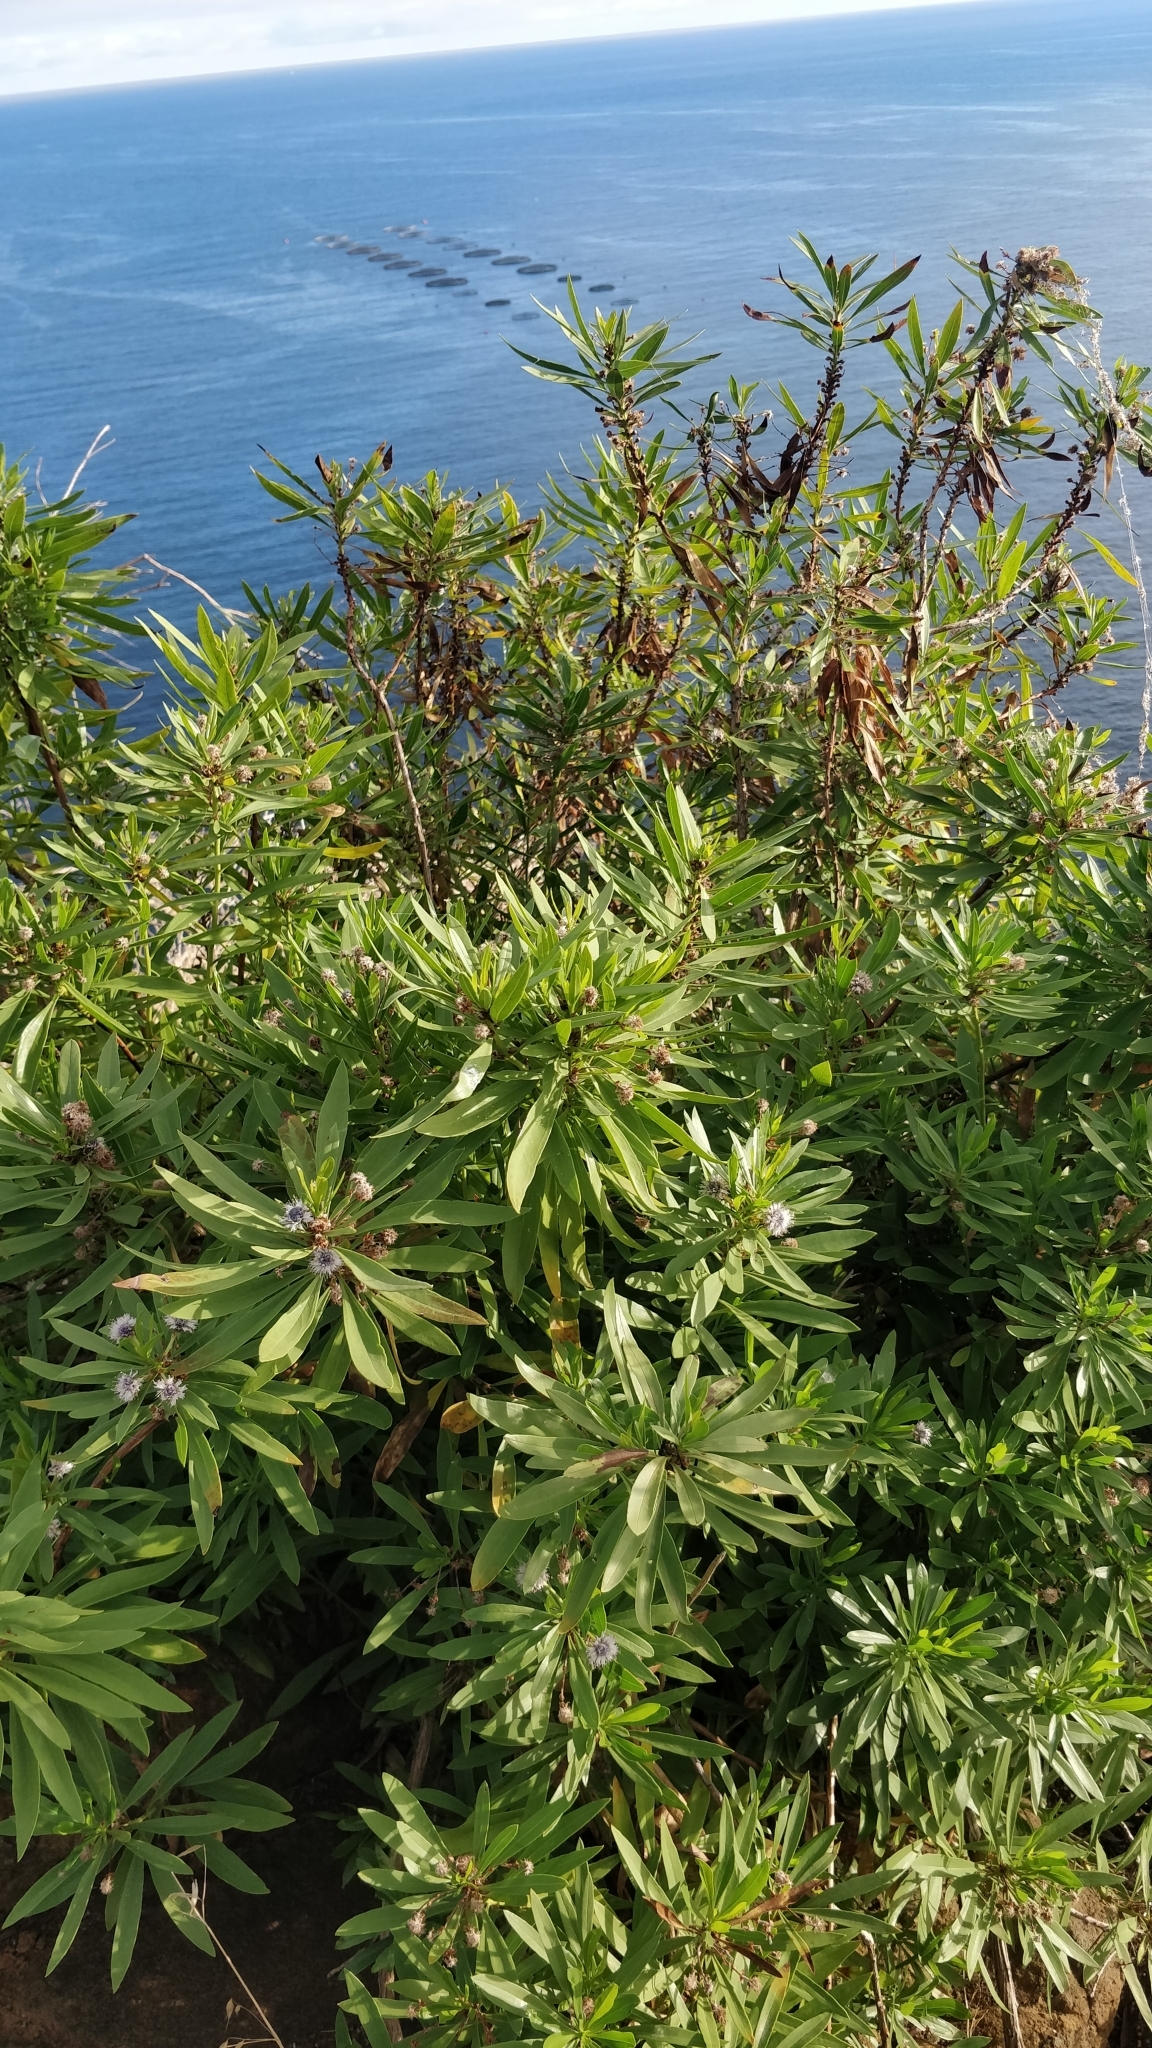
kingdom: Plantae
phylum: Tracheophyta
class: Magnoliopsida
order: Lamiales
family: Plantaginaceae
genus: Globularia
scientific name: Globularia salicina
